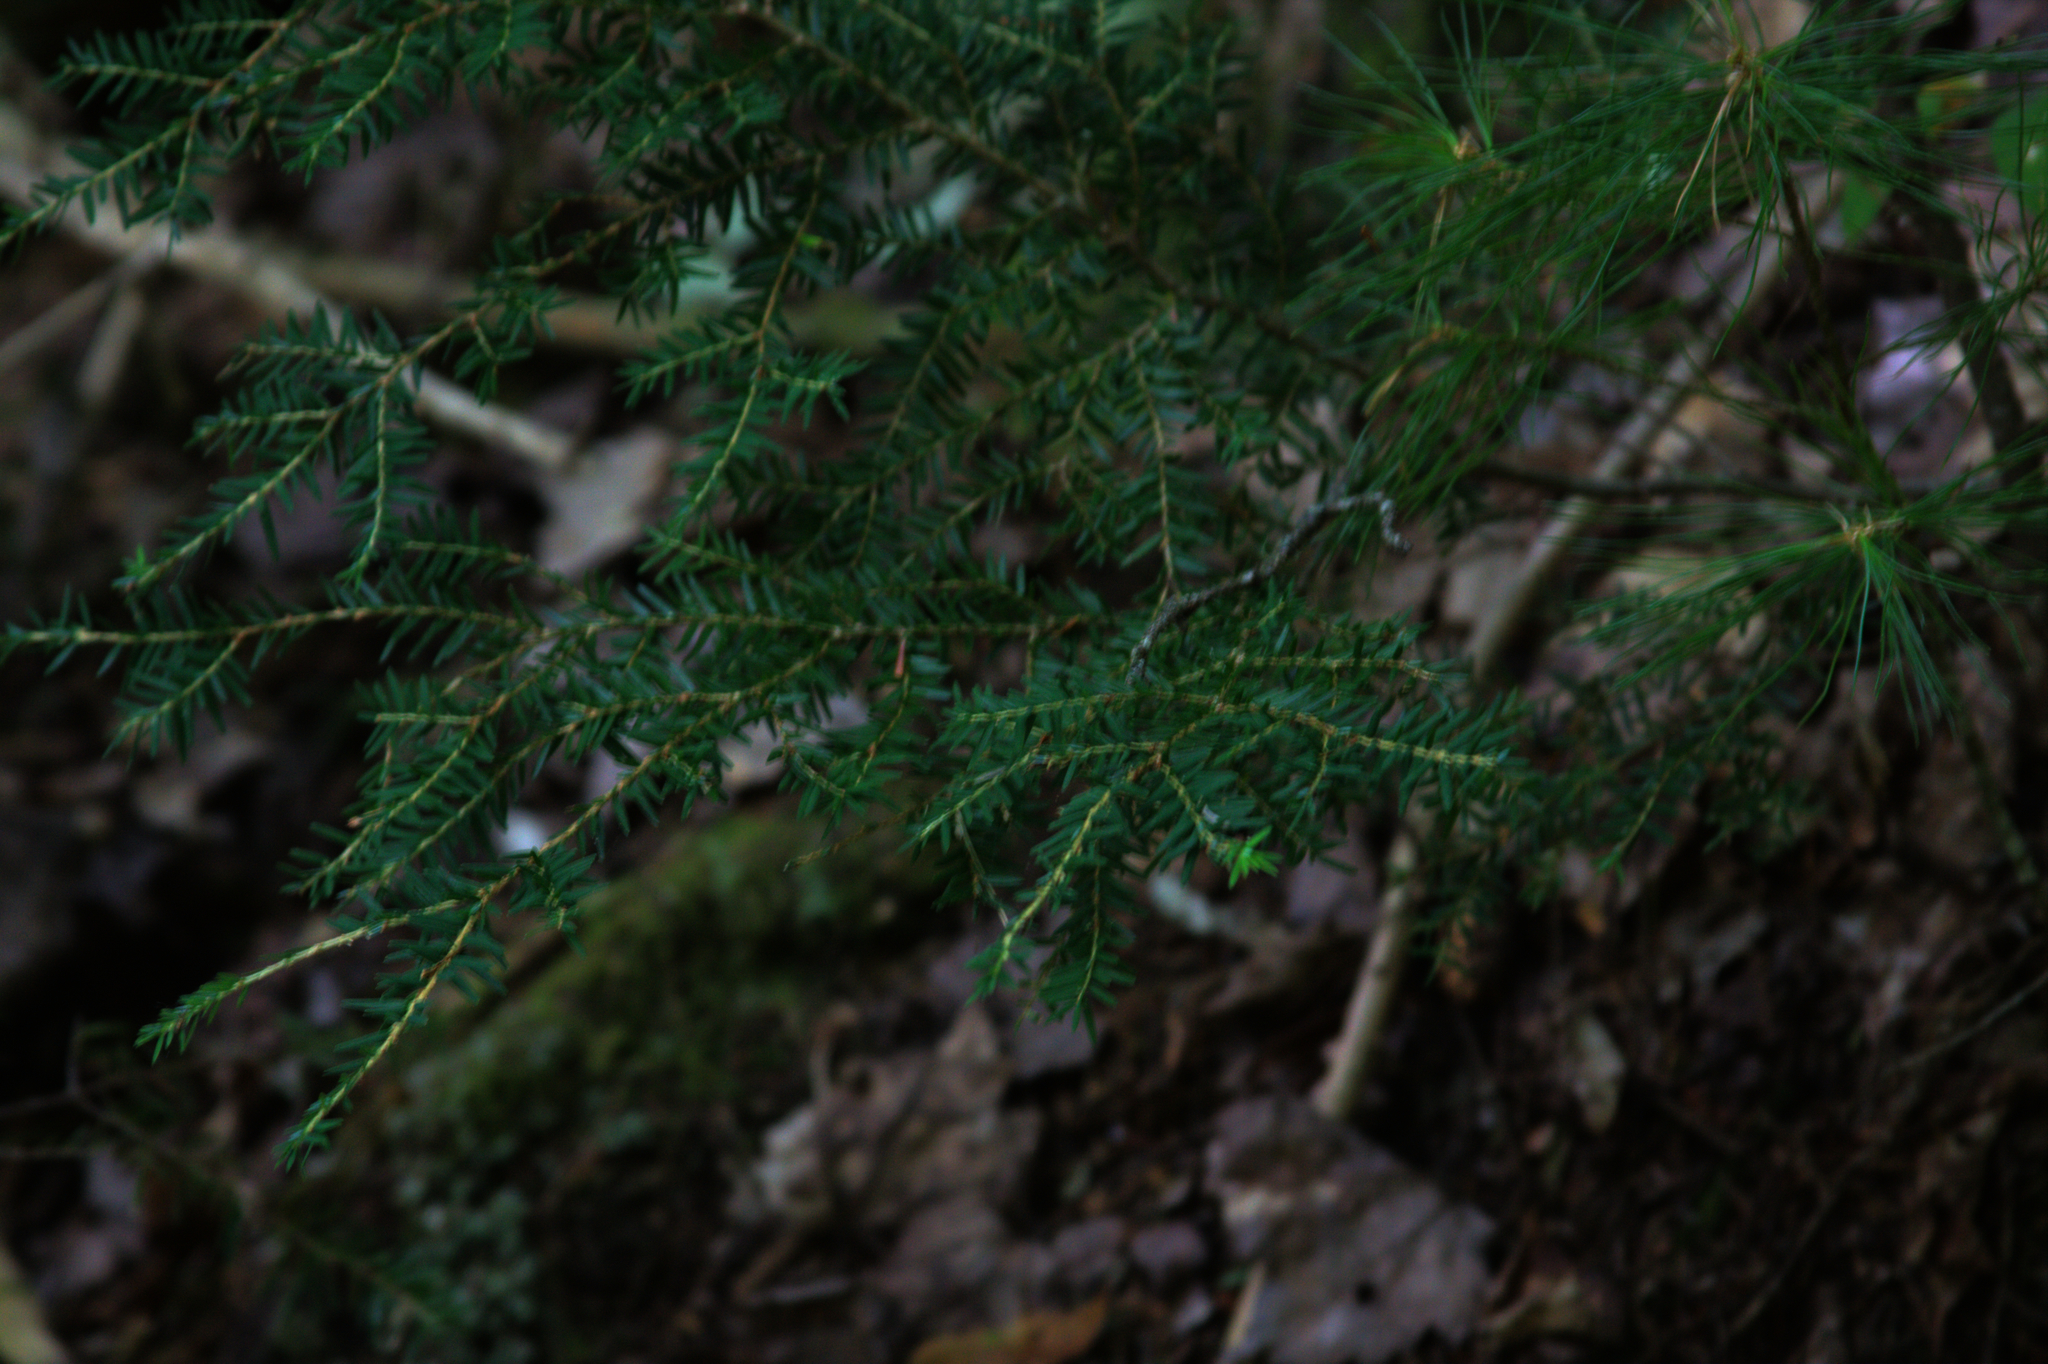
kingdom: Plantae
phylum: Tracheophyta
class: Pinopsida
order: Pinales
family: Pinaceae
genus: Tsuga
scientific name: Tsuga canadensis
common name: Eastern hemlock
